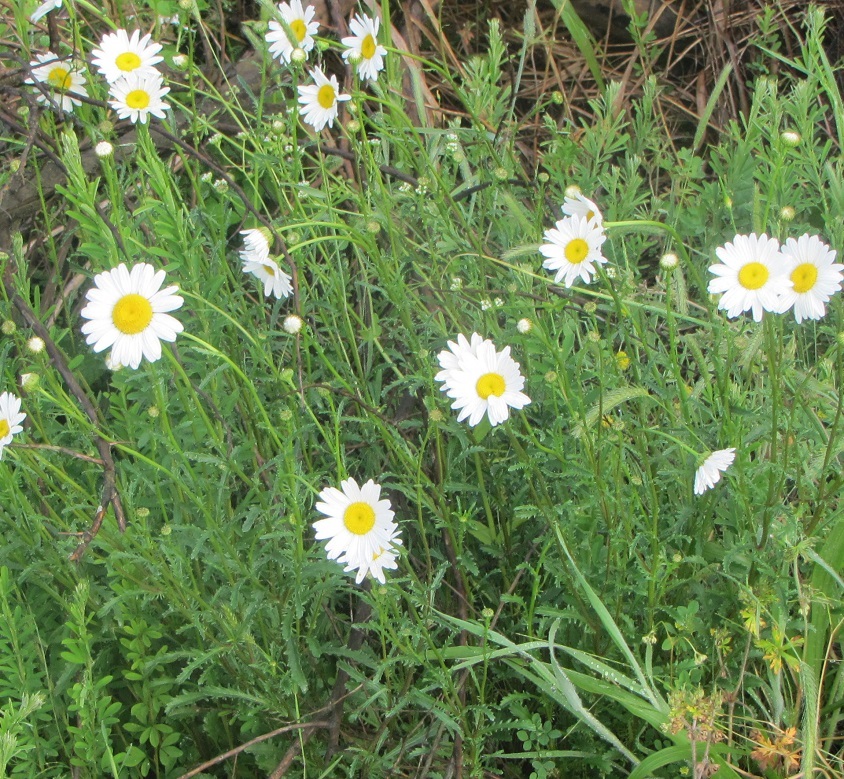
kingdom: Plantae
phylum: Tracheophyta
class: Magnoliopsida
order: Asterales
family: Asteraceae
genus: Leucanthemum
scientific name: Leucanthemum vulgare
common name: Oxeye daisy
